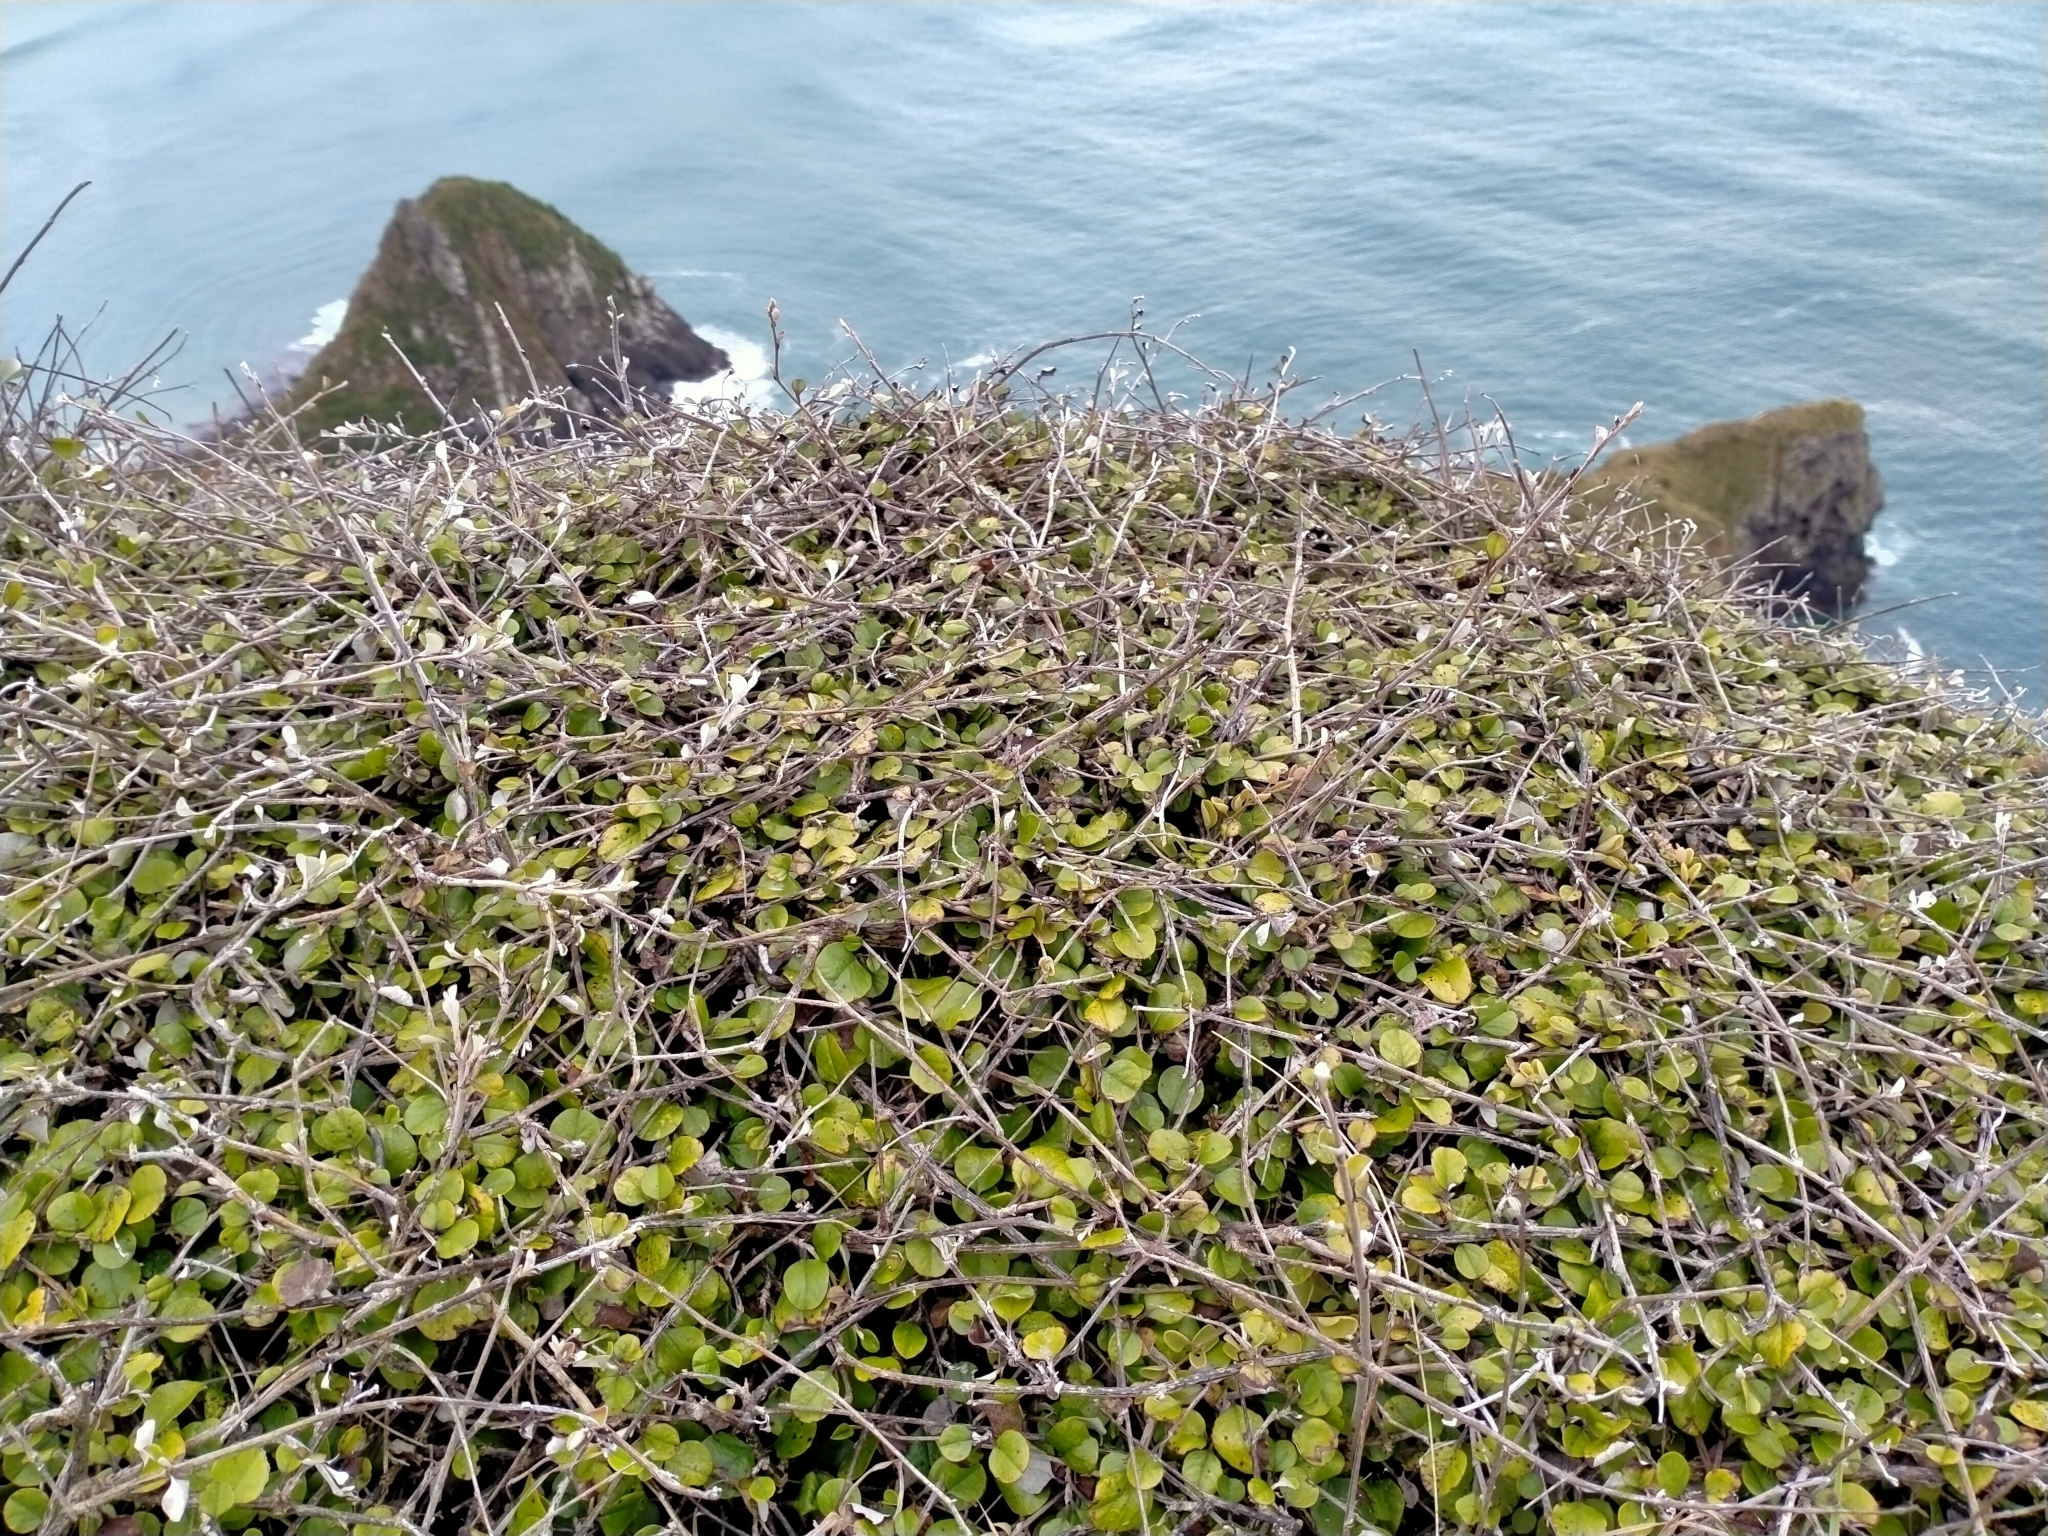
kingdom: Plantae
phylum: Tracheophyta
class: Magnoliopsida
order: Asterales
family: Asteraceae
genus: Ozothamnus
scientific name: Ozothamnus glomeratus
